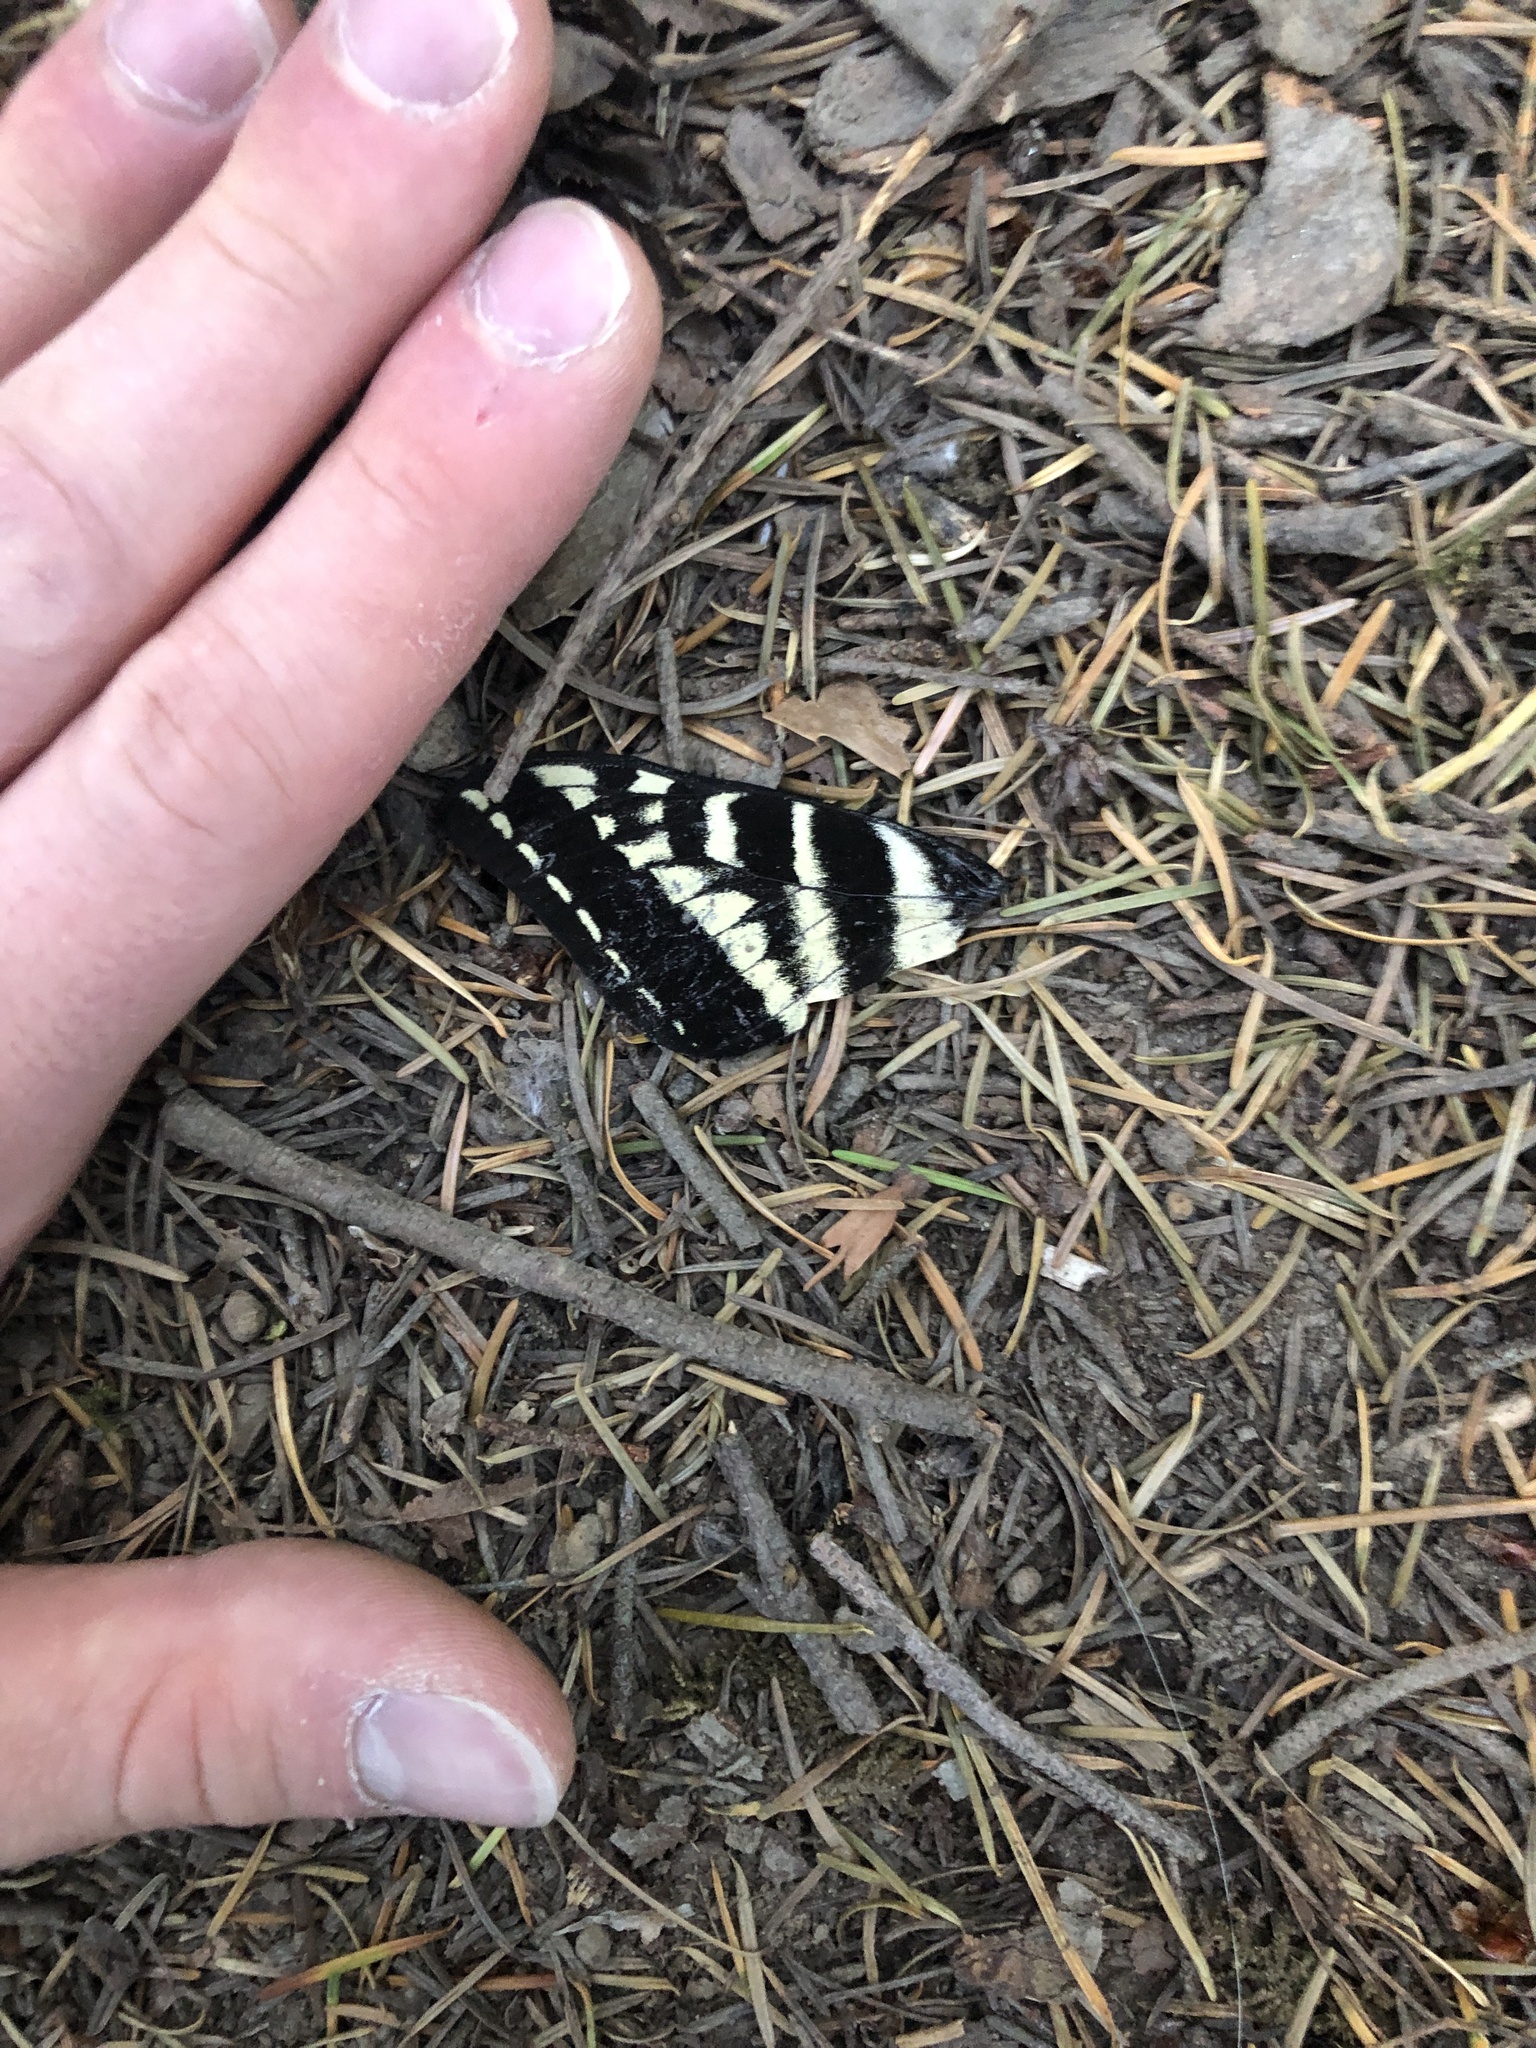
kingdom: Animalia
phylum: Arthropoda
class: Insecta
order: Lepidoptera
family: Papilionidae
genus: Papilio
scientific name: Papilio eurymedon
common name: Pale tiger swallowtail
